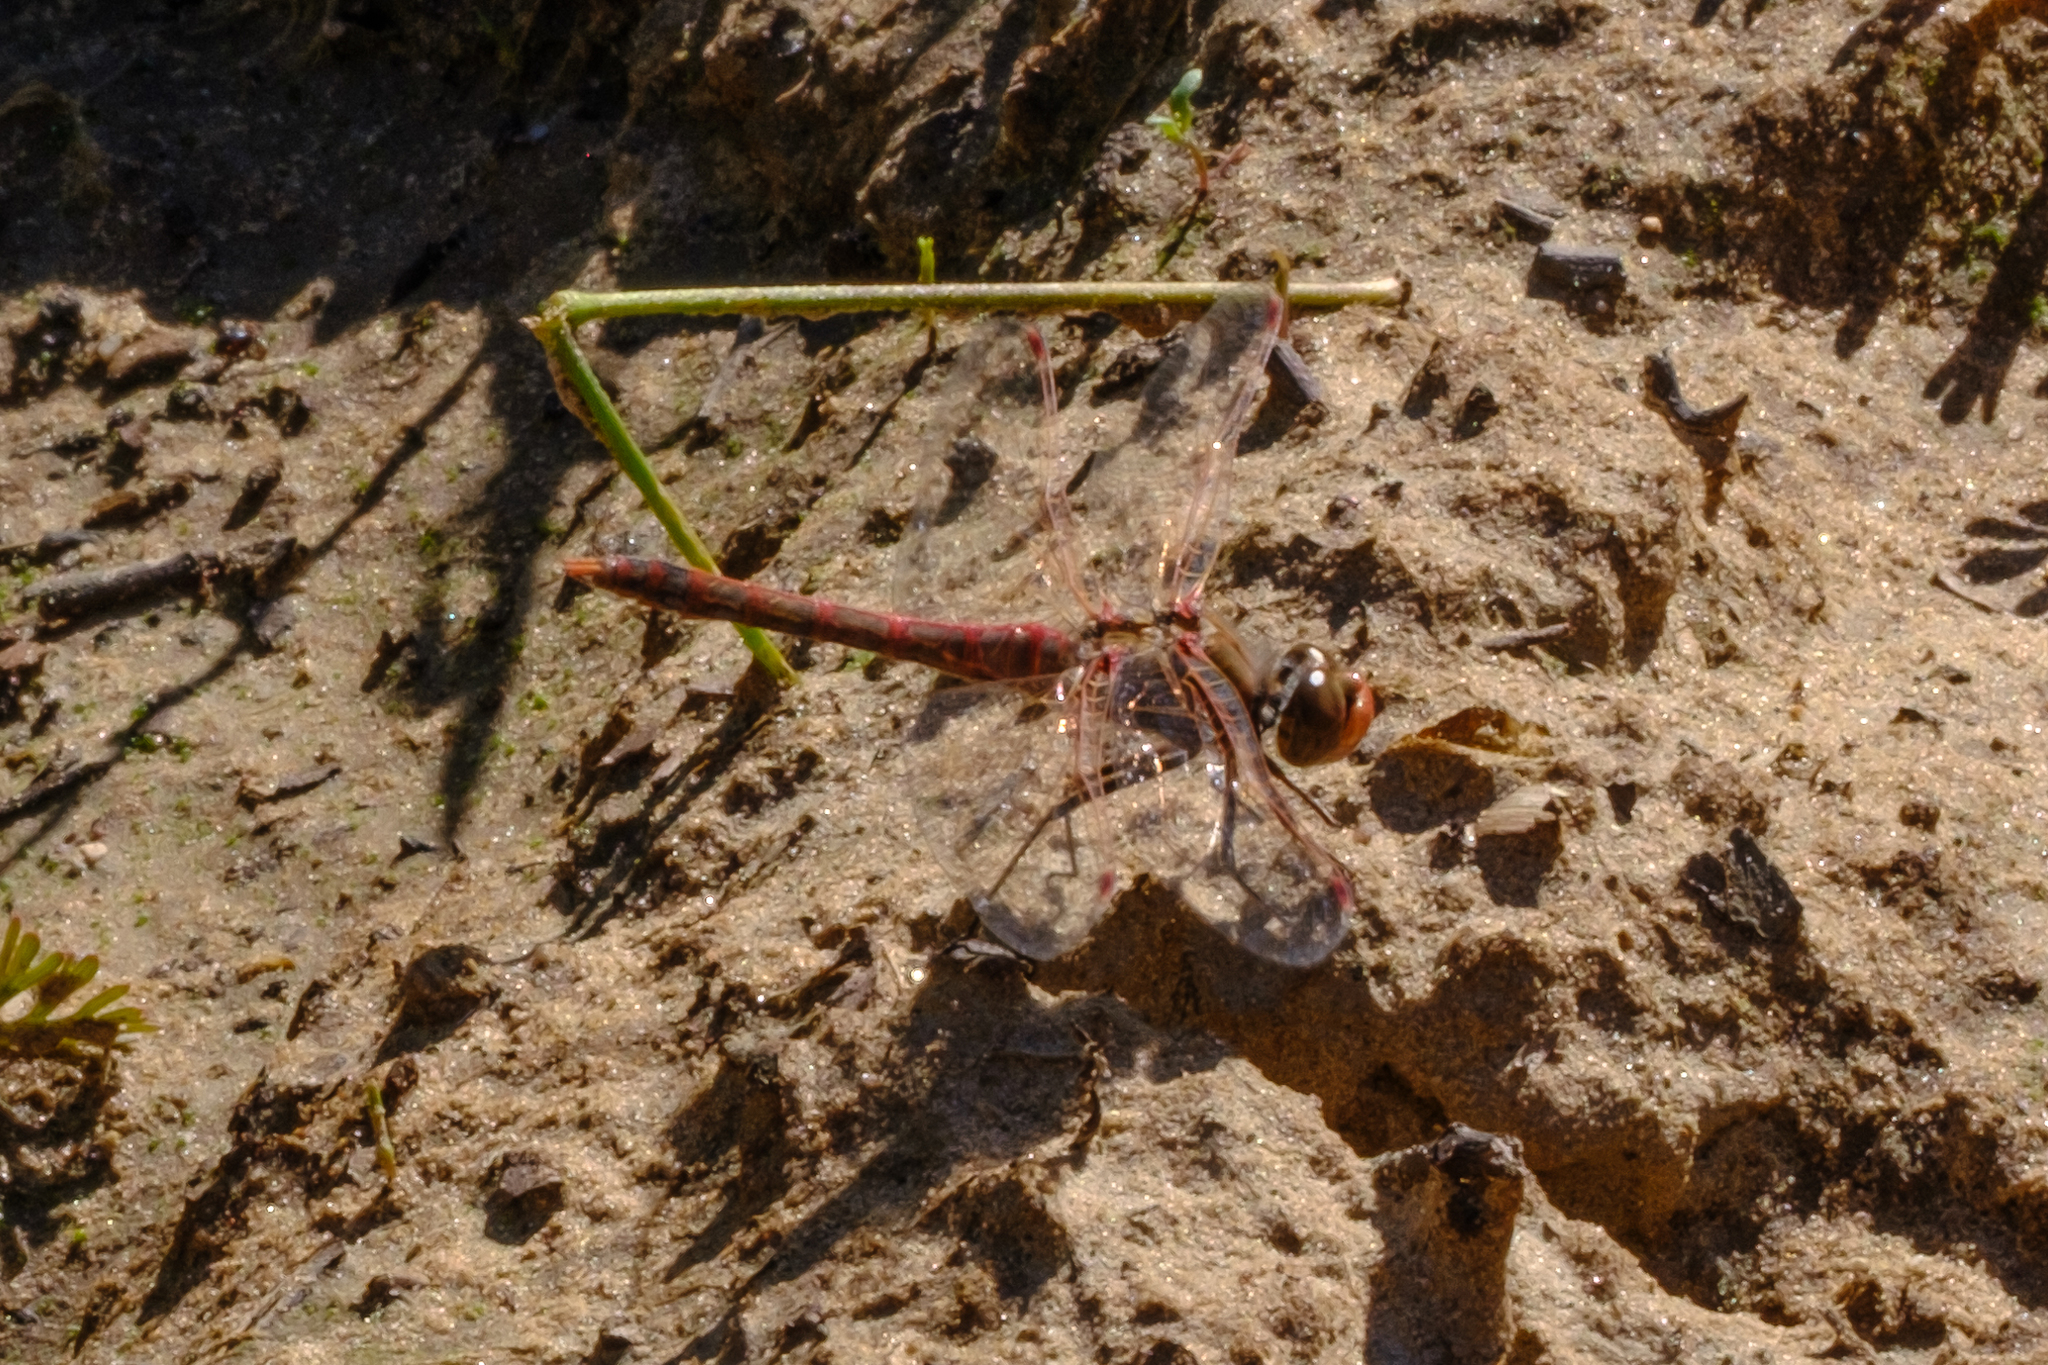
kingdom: Animalia
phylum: Arthropoda
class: Insecta
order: Odonata
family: Libellulidae
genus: Sympetrum
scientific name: Sympetrum corruptum
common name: Variegated meadowhawk
